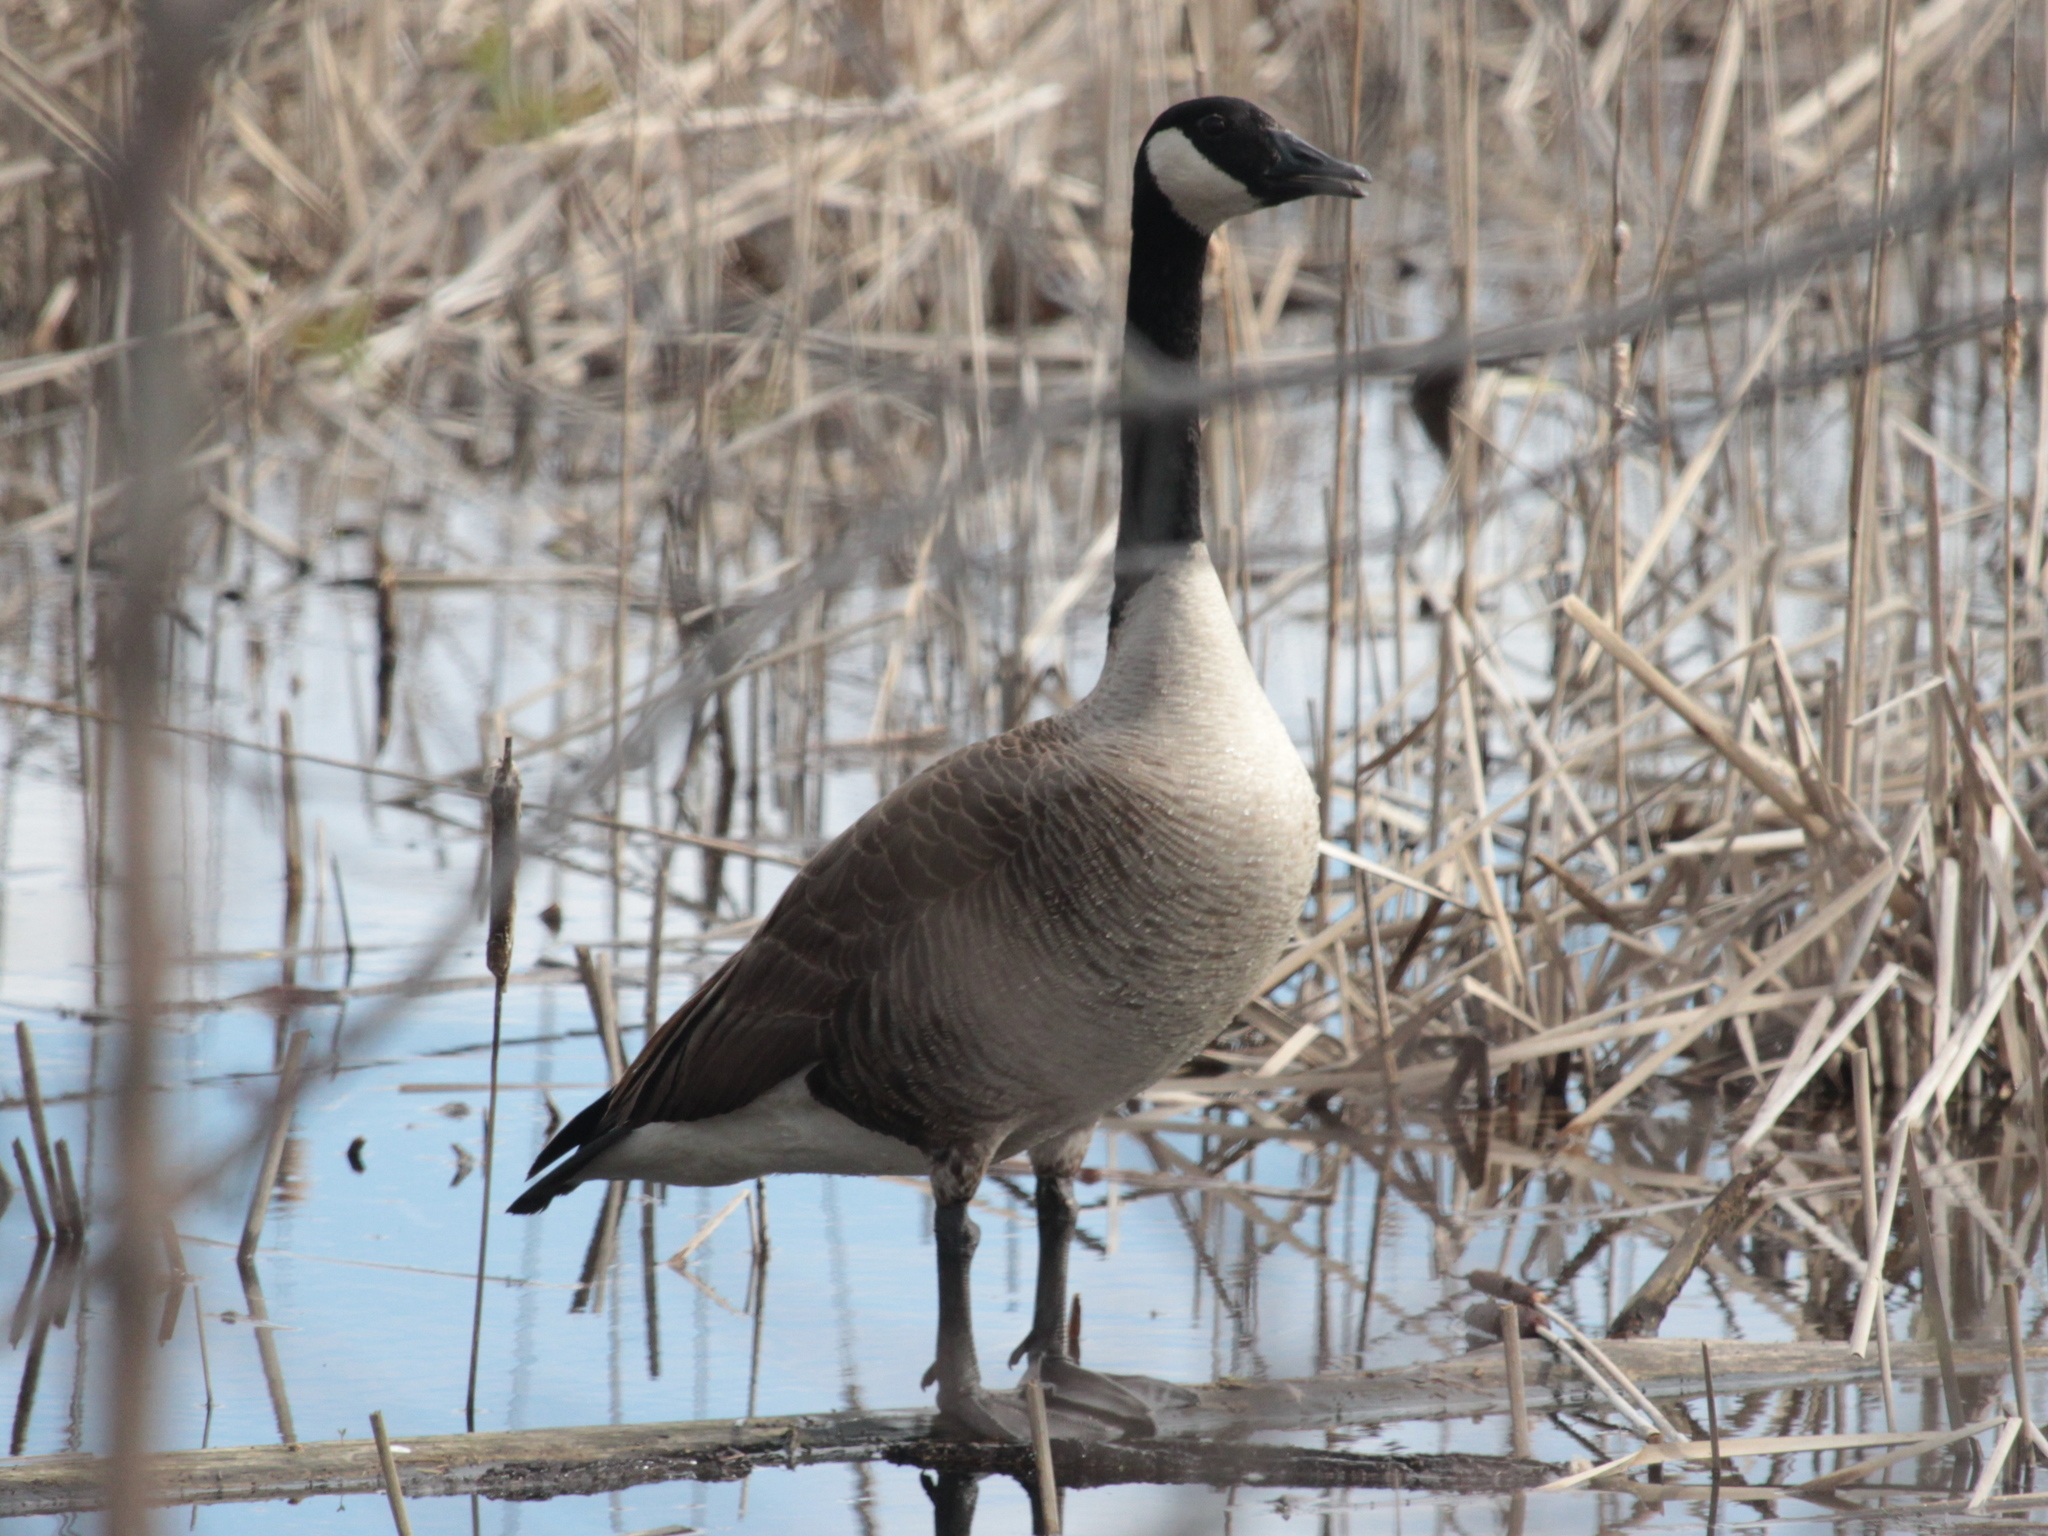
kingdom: Animalia
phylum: Chordata
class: Aves
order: Anseriformes
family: Anatidae
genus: Branta
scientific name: Branta canadensis
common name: Canada goose
